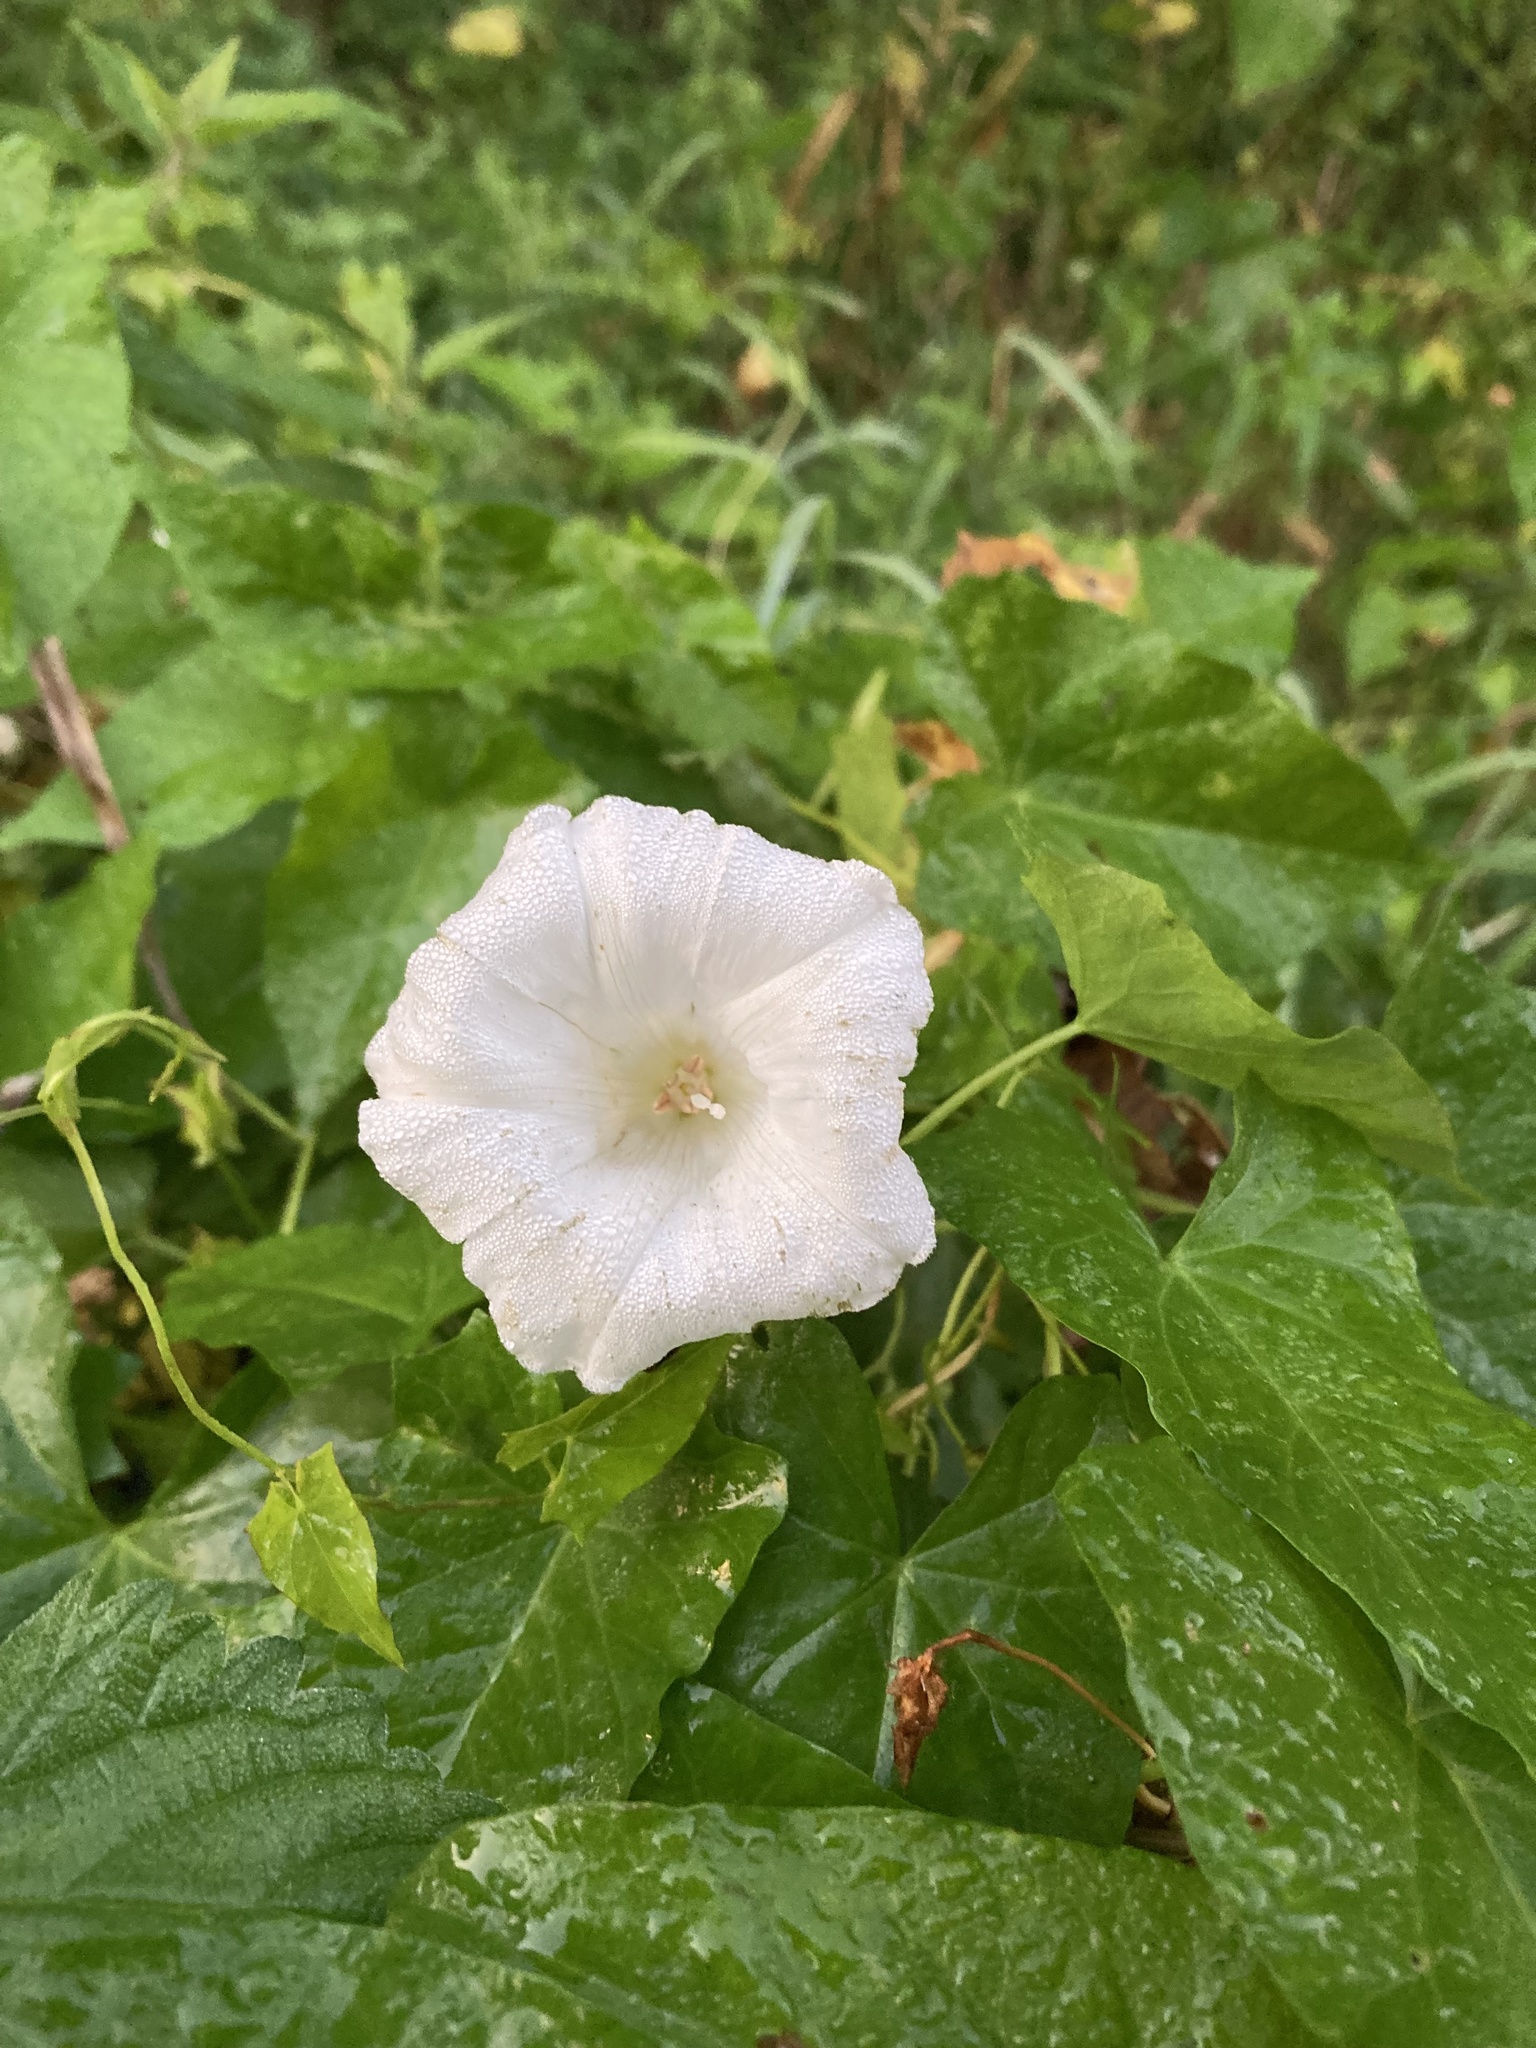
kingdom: Plantae
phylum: Tracheophyta
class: Magnoliopsida
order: Solanales
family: Convolvulaceae
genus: Calystegia
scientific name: Calystegia sepium
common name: Hedge bindweed
